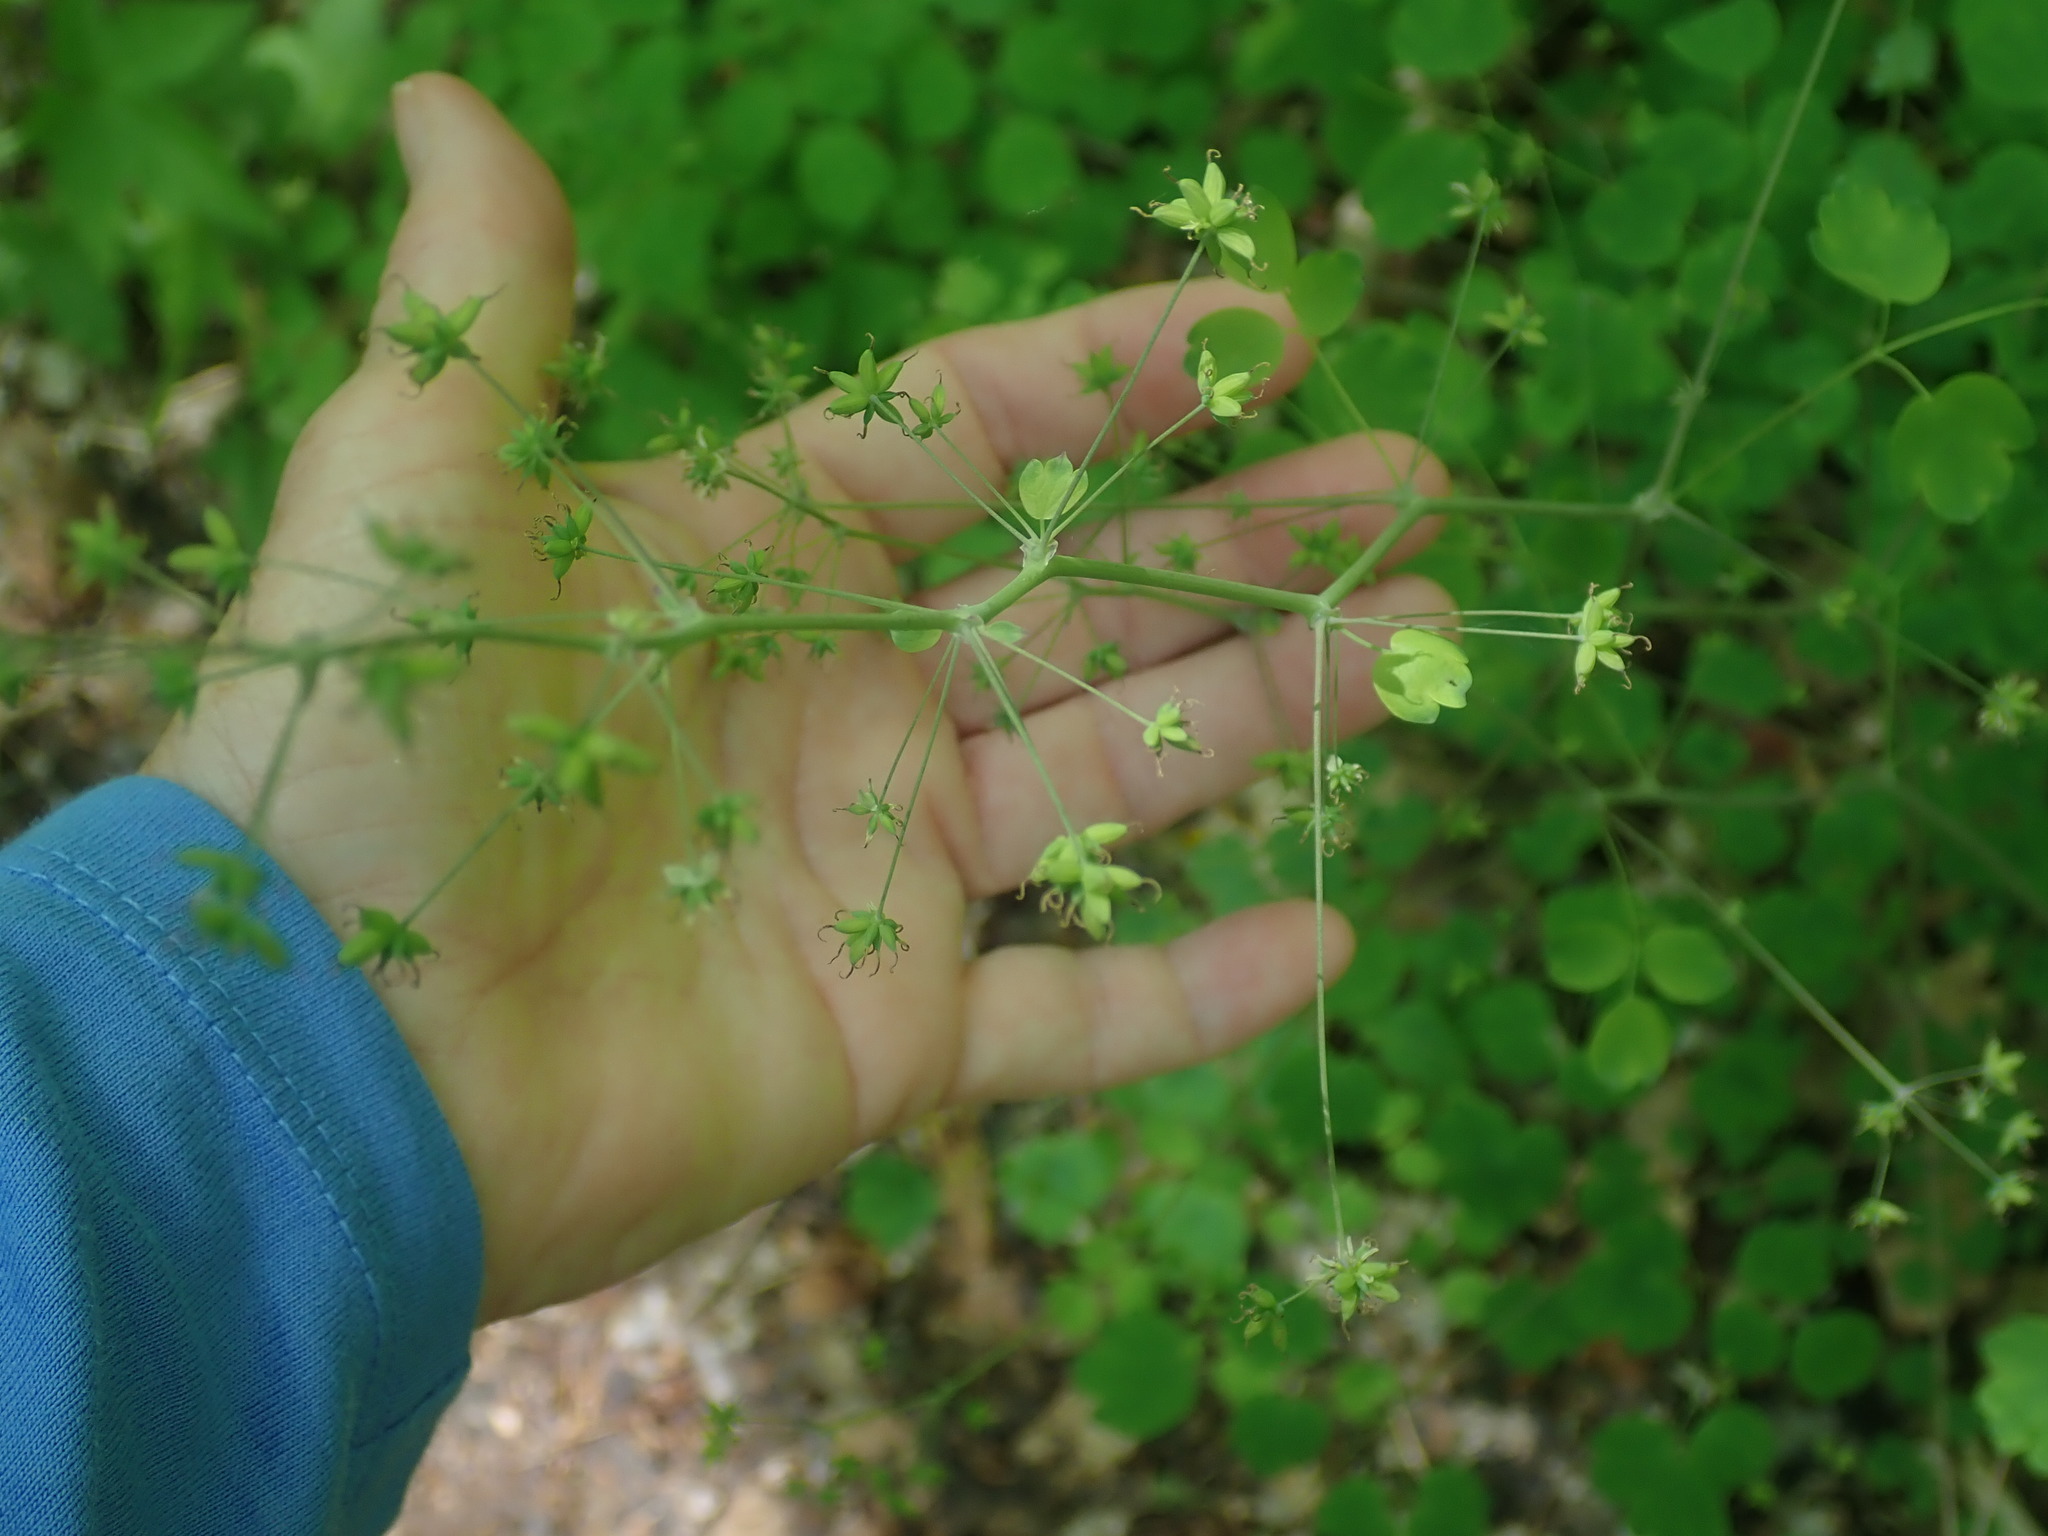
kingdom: Plantae
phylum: Tracheophyta
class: Magnoliopsida
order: Ranunculales
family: Ranunculaceae
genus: Thalictrum
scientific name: Thalictrum dioicum
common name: Early meadow-rue
